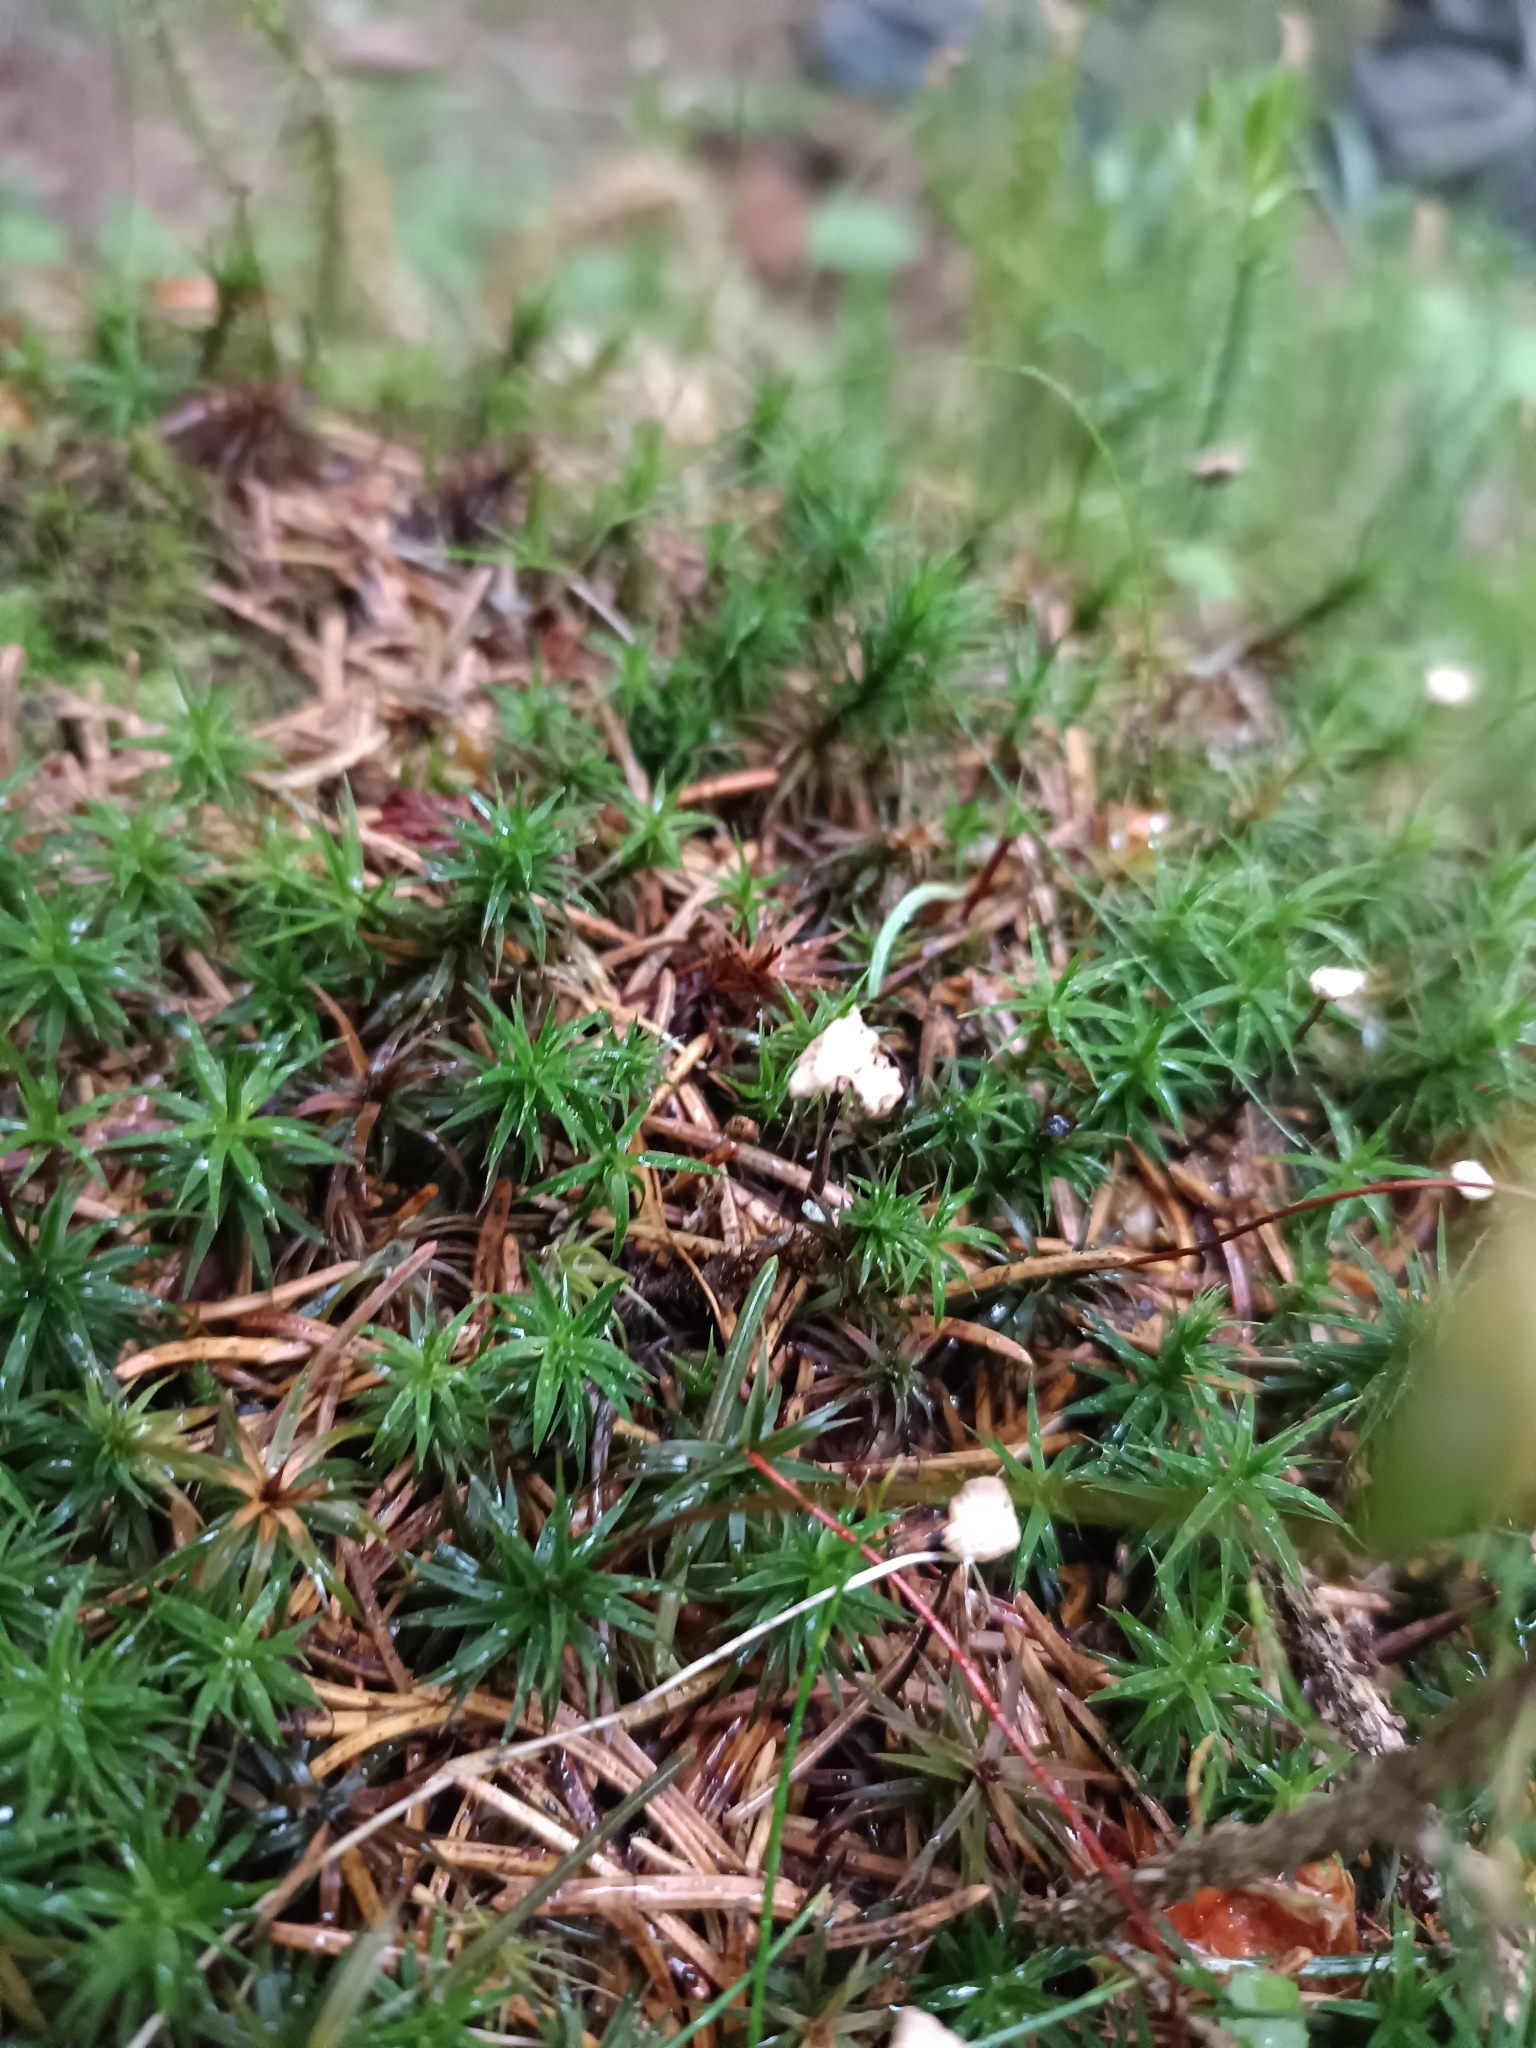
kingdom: Plantae
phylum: Bryophyta
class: Polytrichopsida
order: Polytrichales
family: Polytrichaceae
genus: Polytrichum
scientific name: Polytrichum formosum
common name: Bank haircap moss
